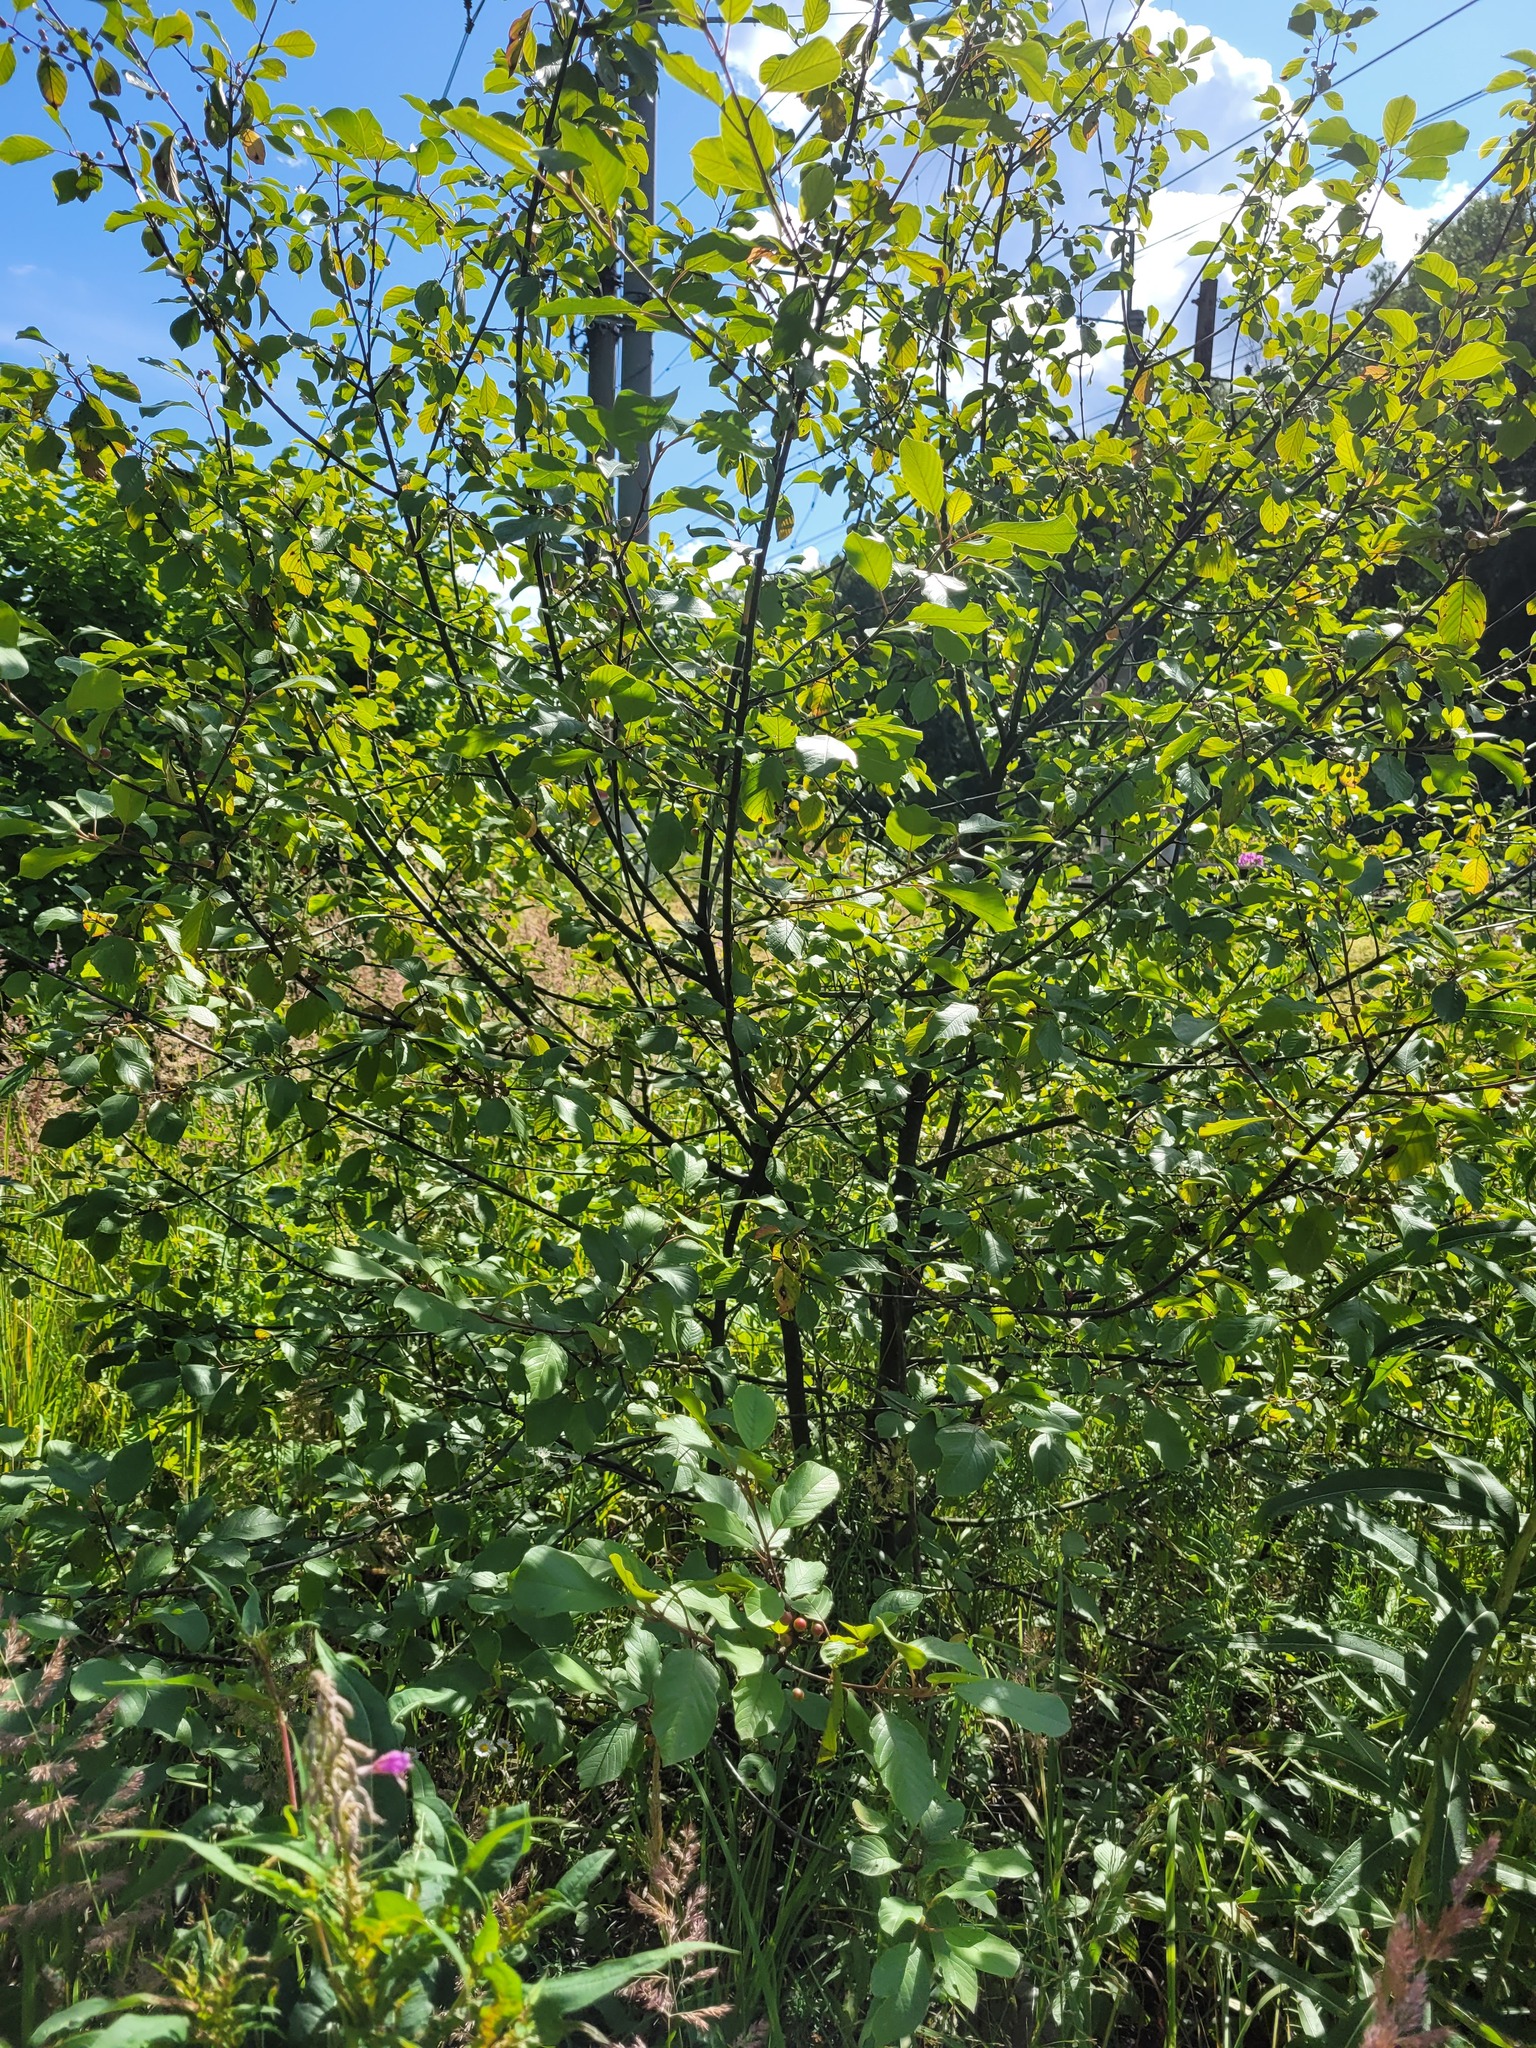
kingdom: Plantae
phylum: Tracheophyta
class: Magnoliopsida
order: Rosales
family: Rhamnaceae
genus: Frangula
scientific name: Frangula alnus
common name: Alder buckthorn
